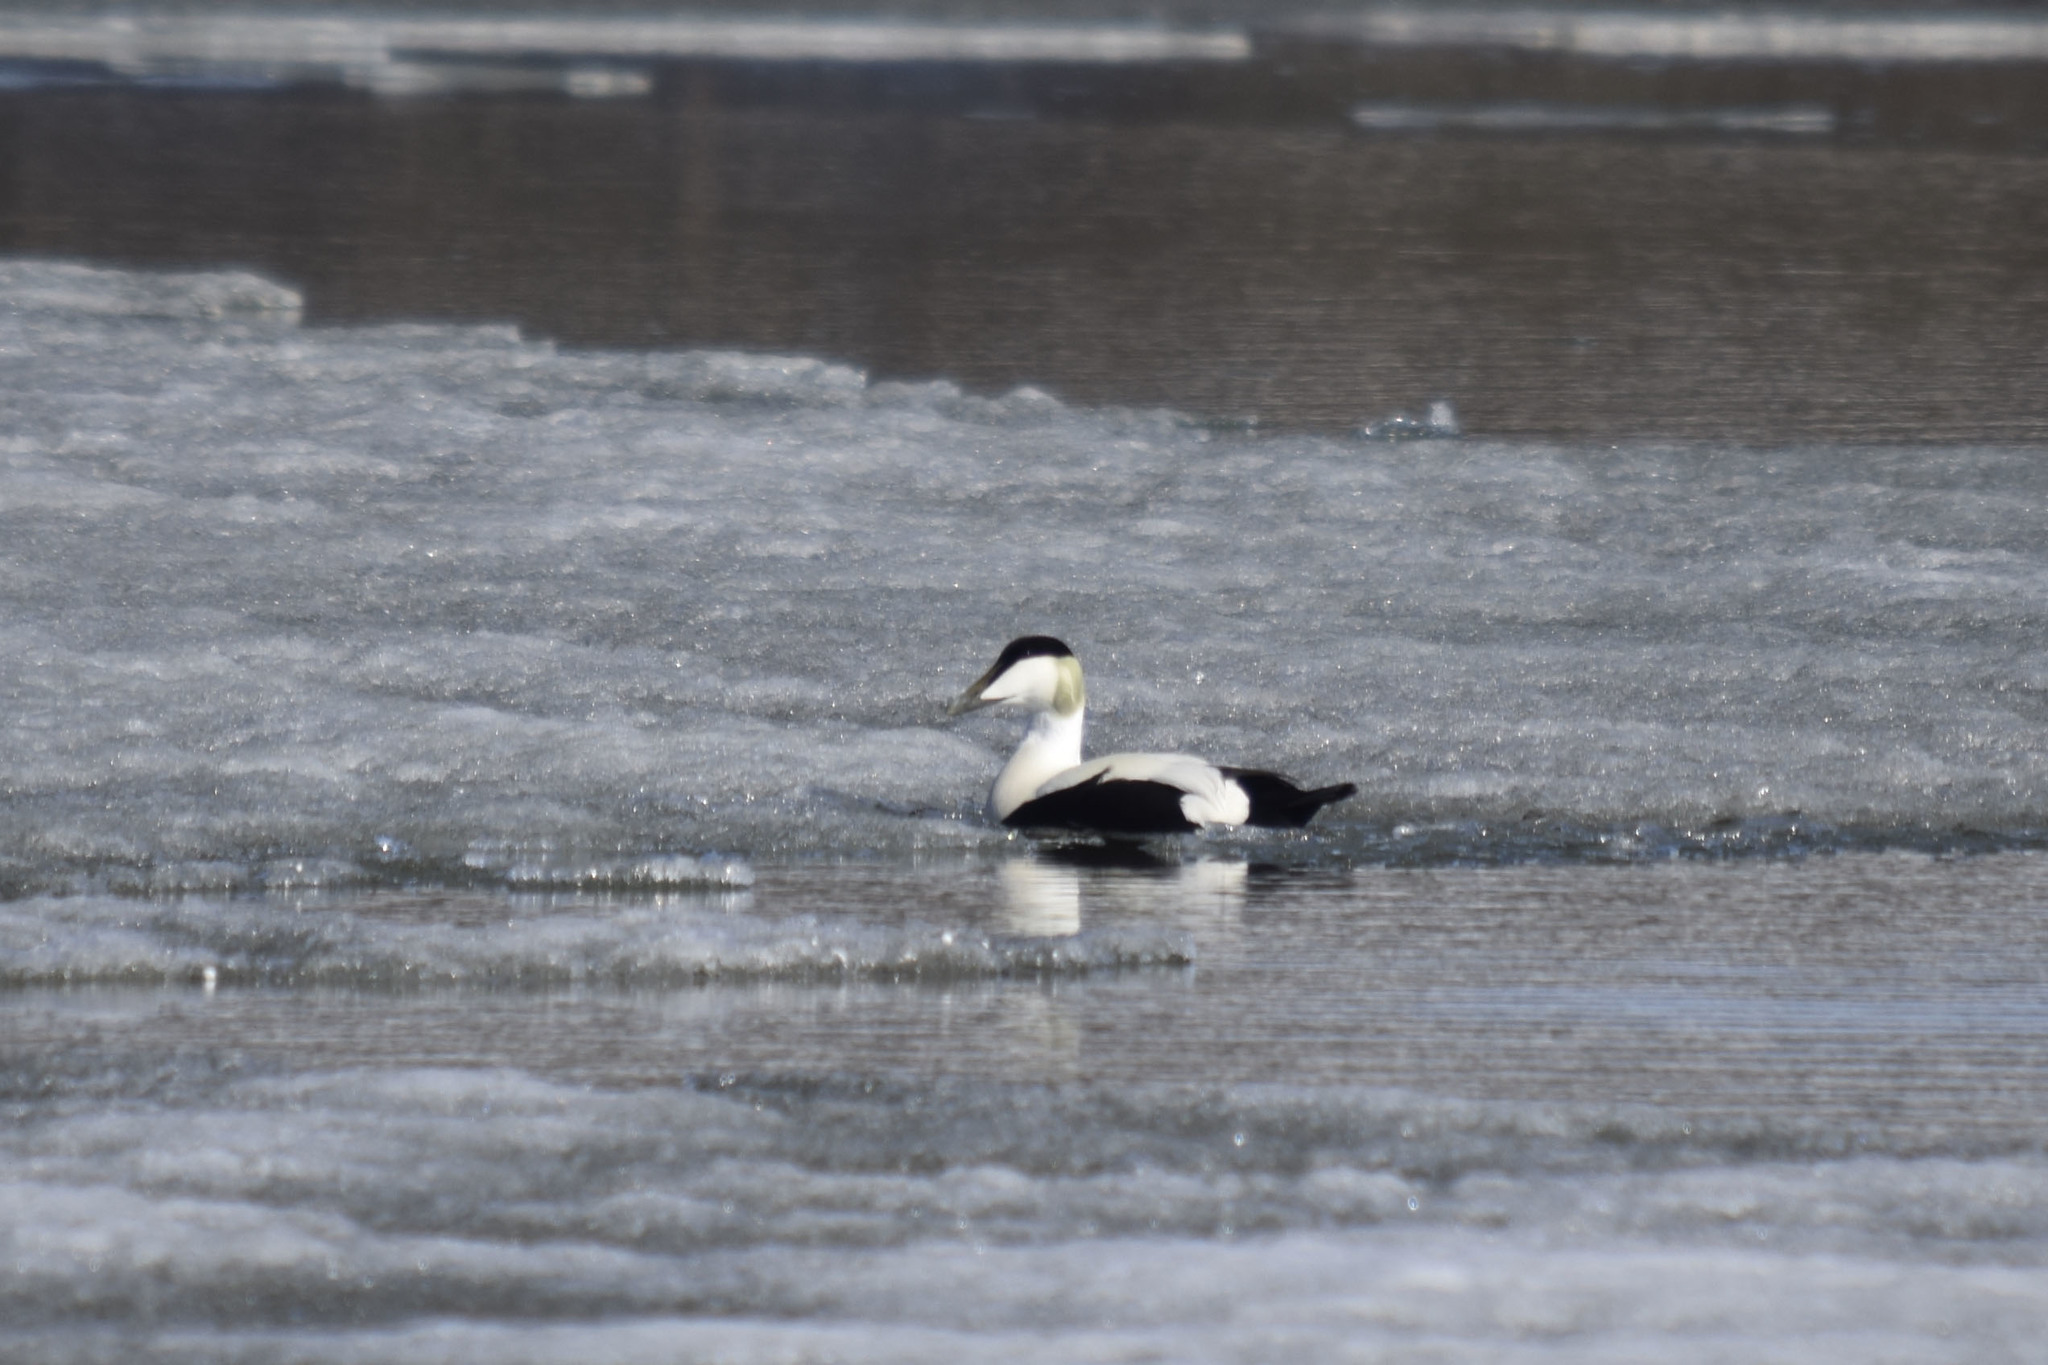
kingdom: Animalia
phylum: Chordata
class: Aves
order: Anseriformes
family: Anatidae
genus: Somateria
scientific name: Somateria mollissima
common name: Common eider
